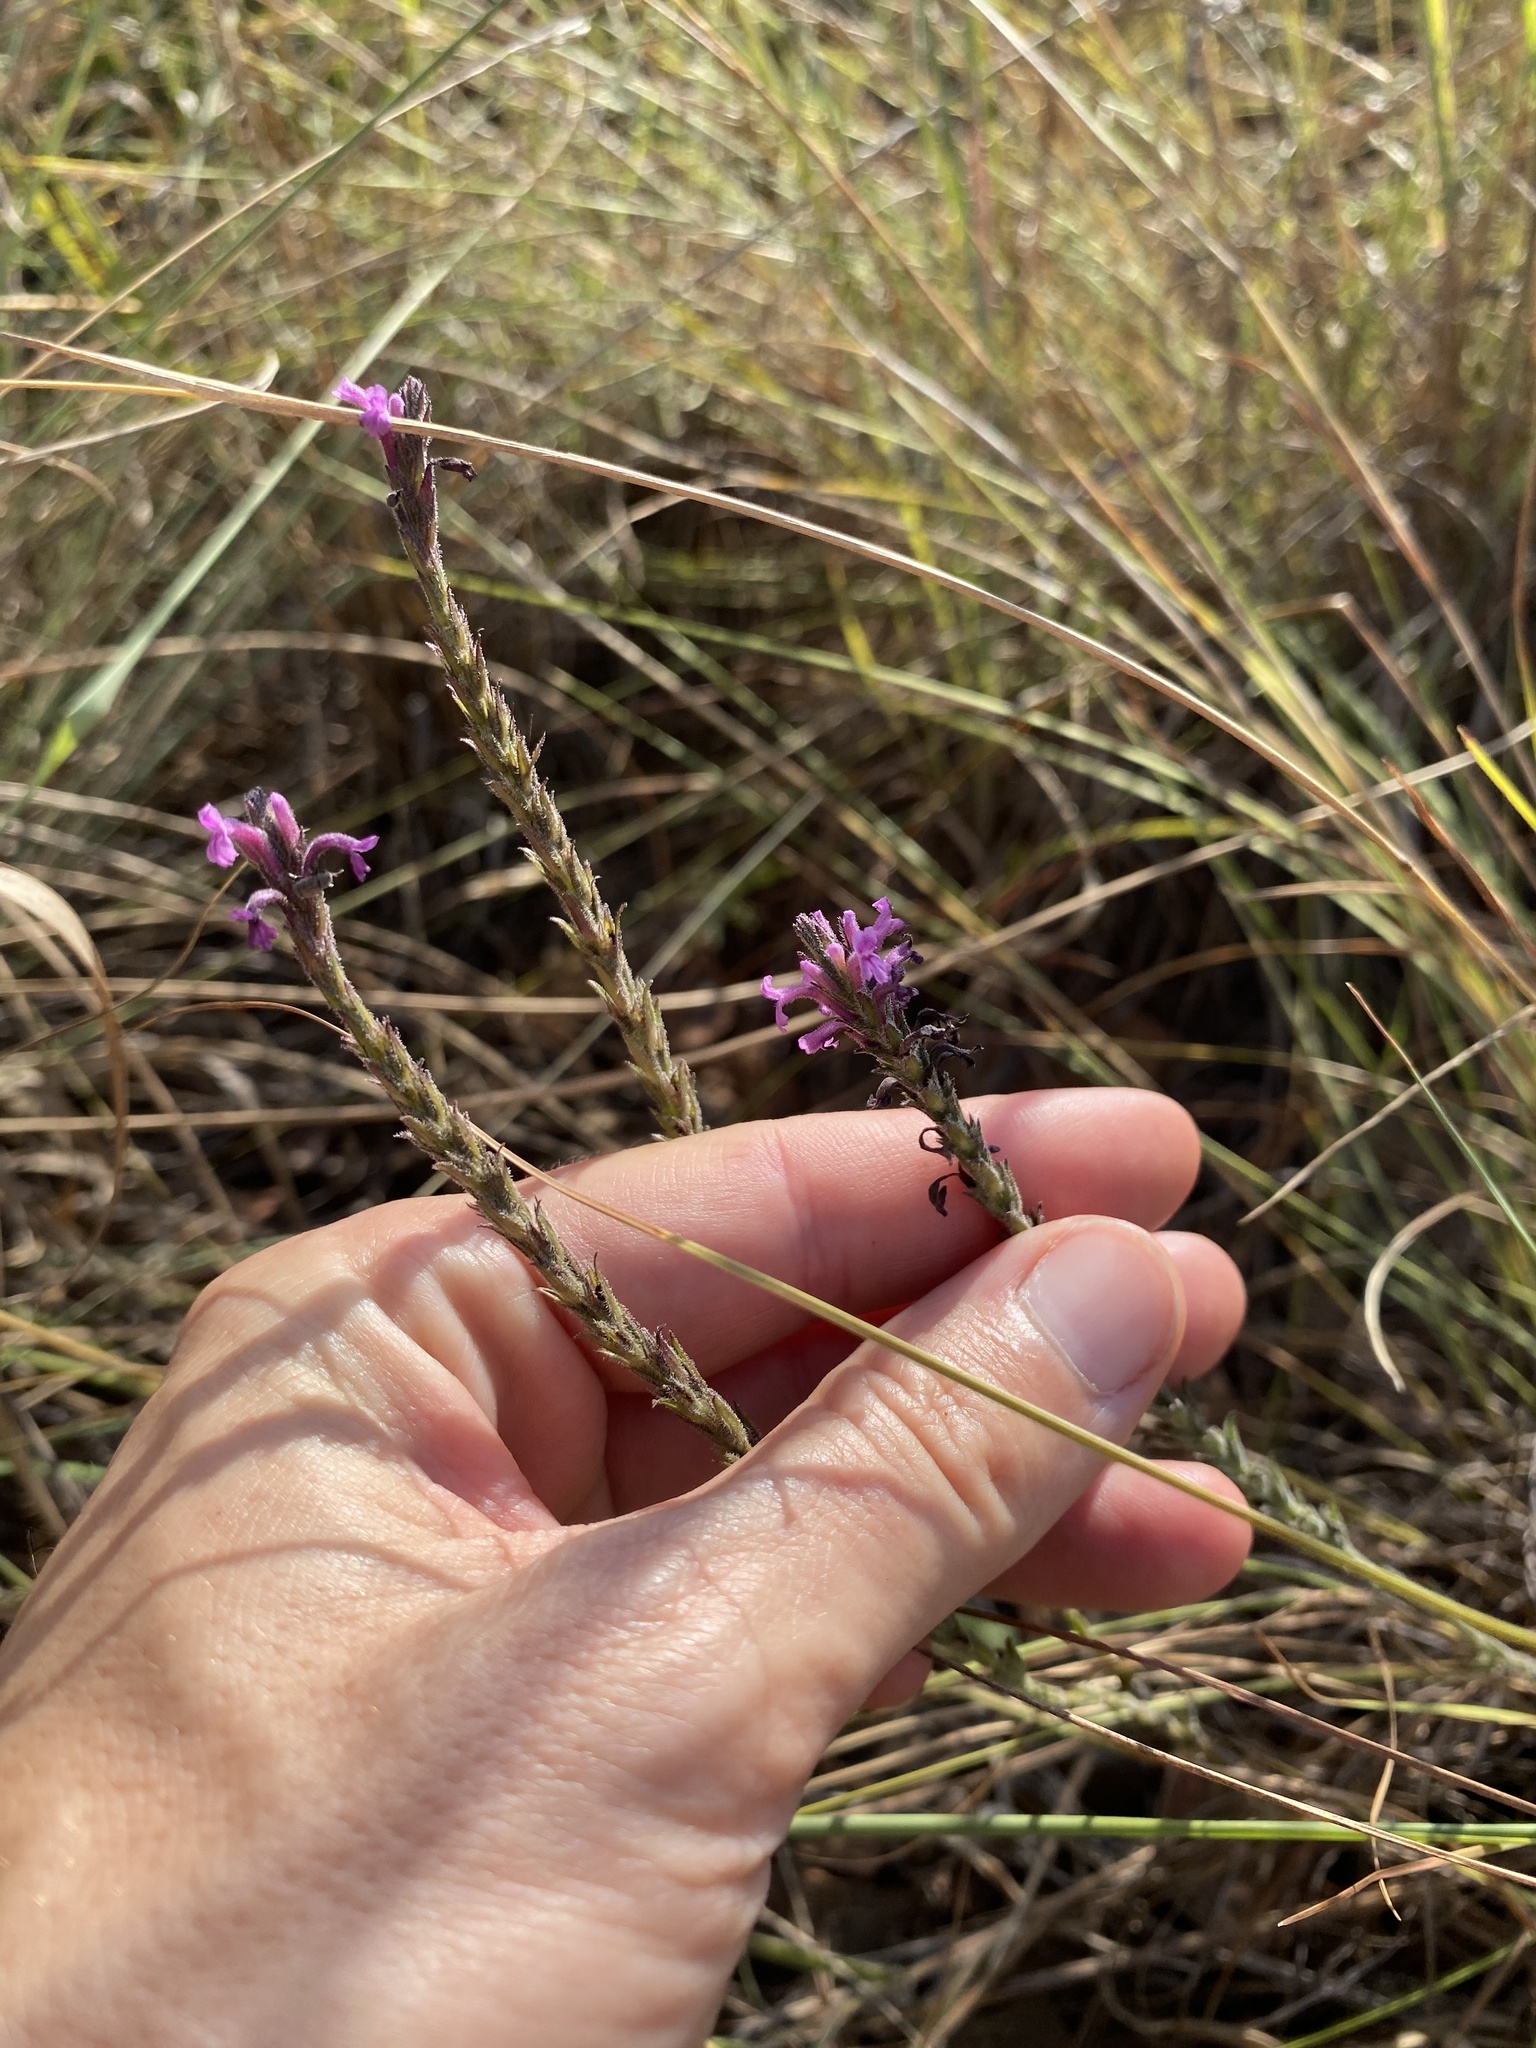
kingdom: Plantae
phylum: Tracheophyta
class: Magnoliopsida
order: Lamiales
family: Orobanchaceae
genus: Striga
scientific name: Striga bilabiata
